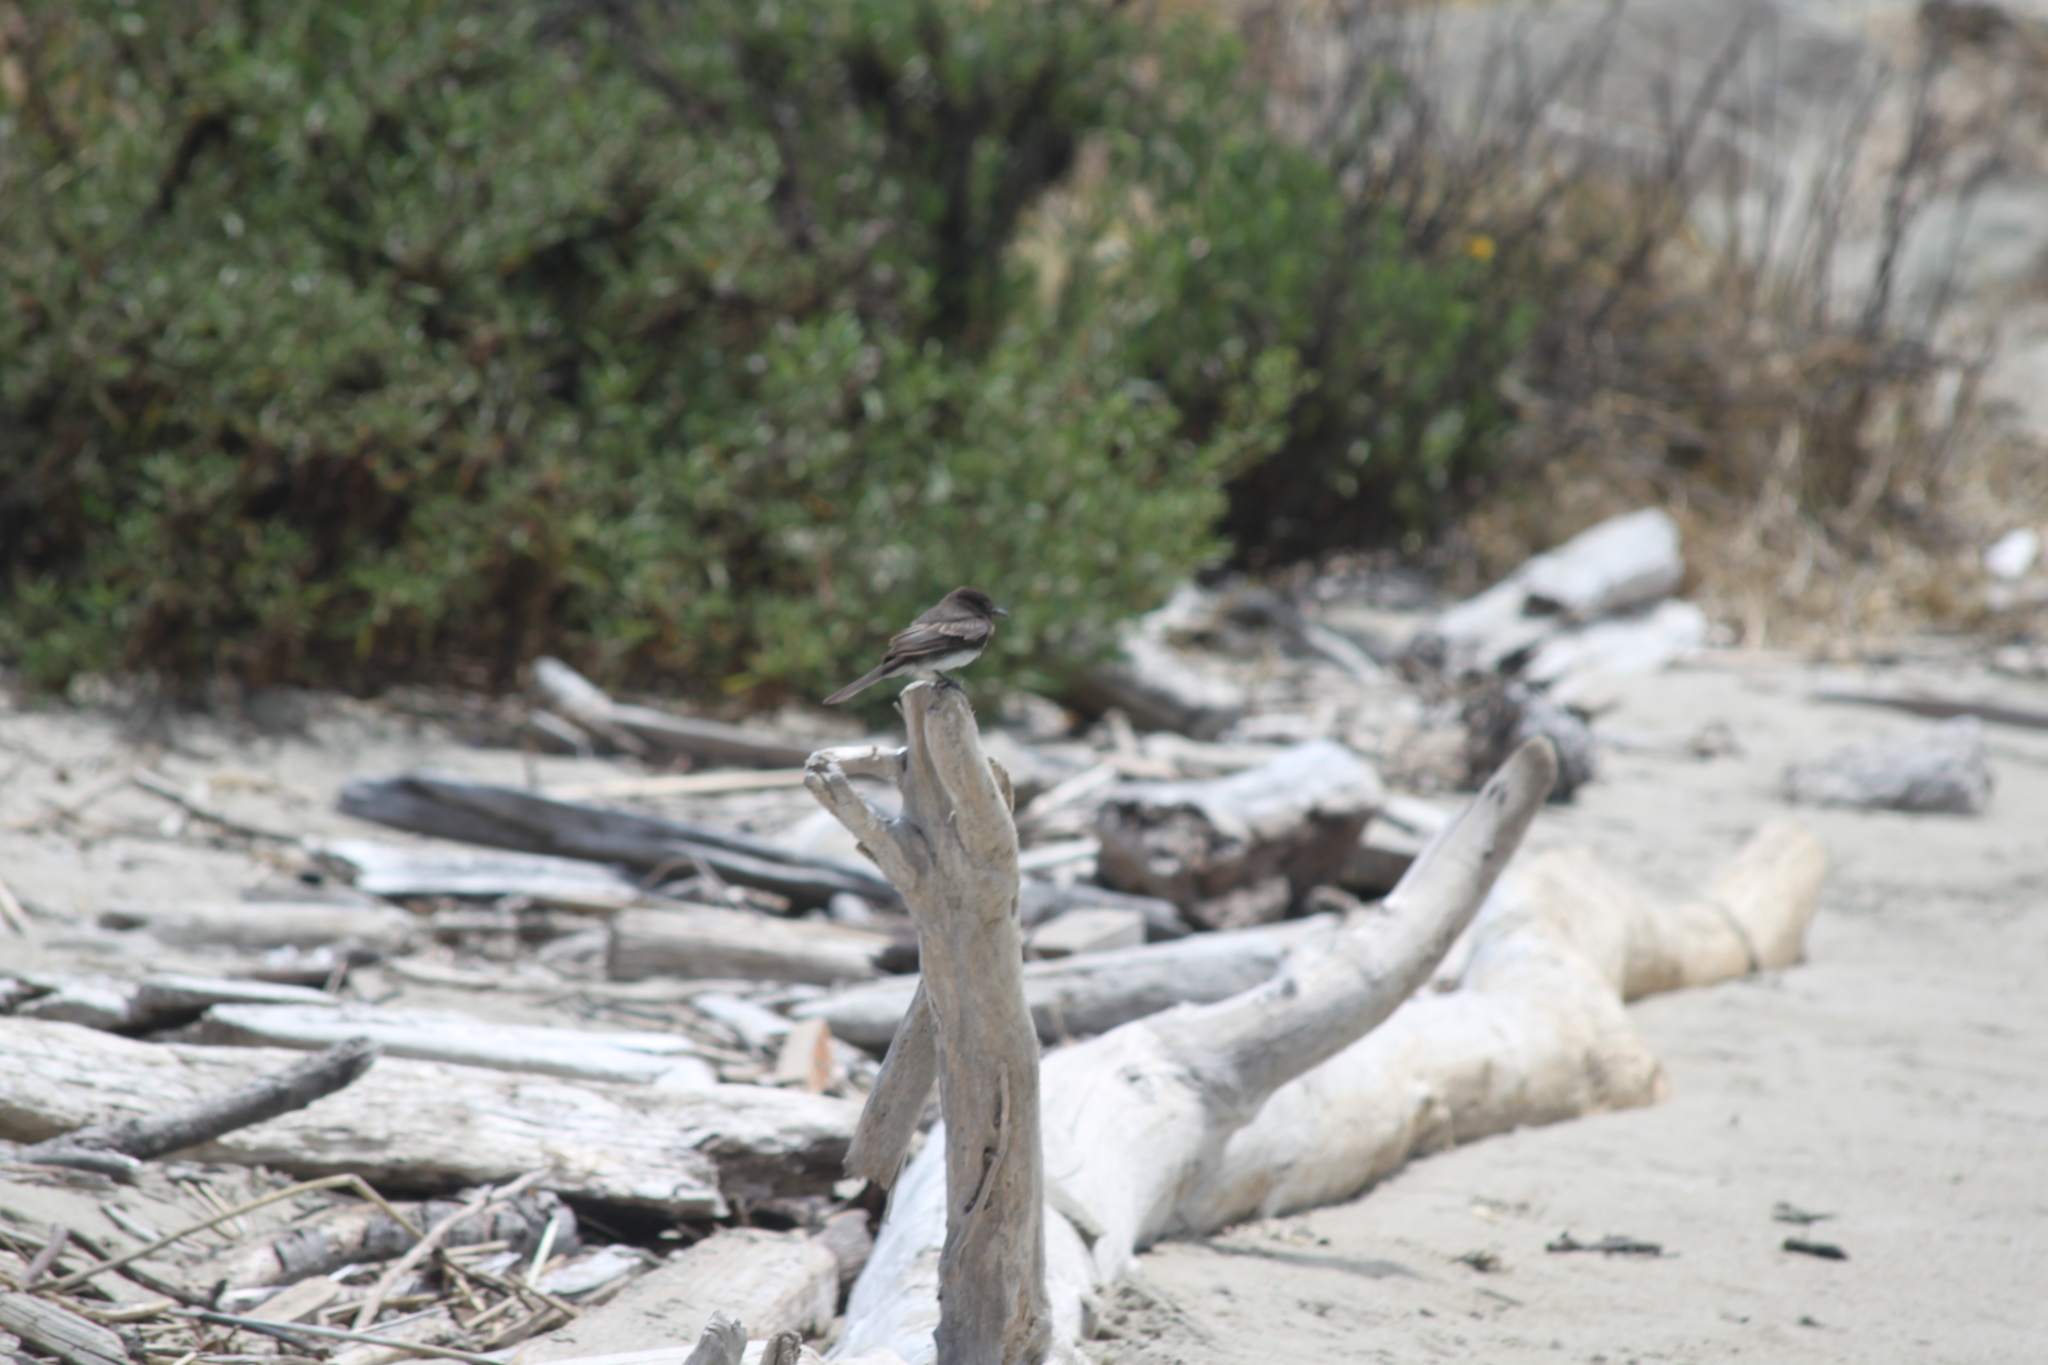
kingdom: Animalia
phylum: Chordata
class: Aves
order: Passeriformes
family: Tyrannidae
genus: Sayornis
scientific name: Sayornis nigricans
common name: Black phoebe
